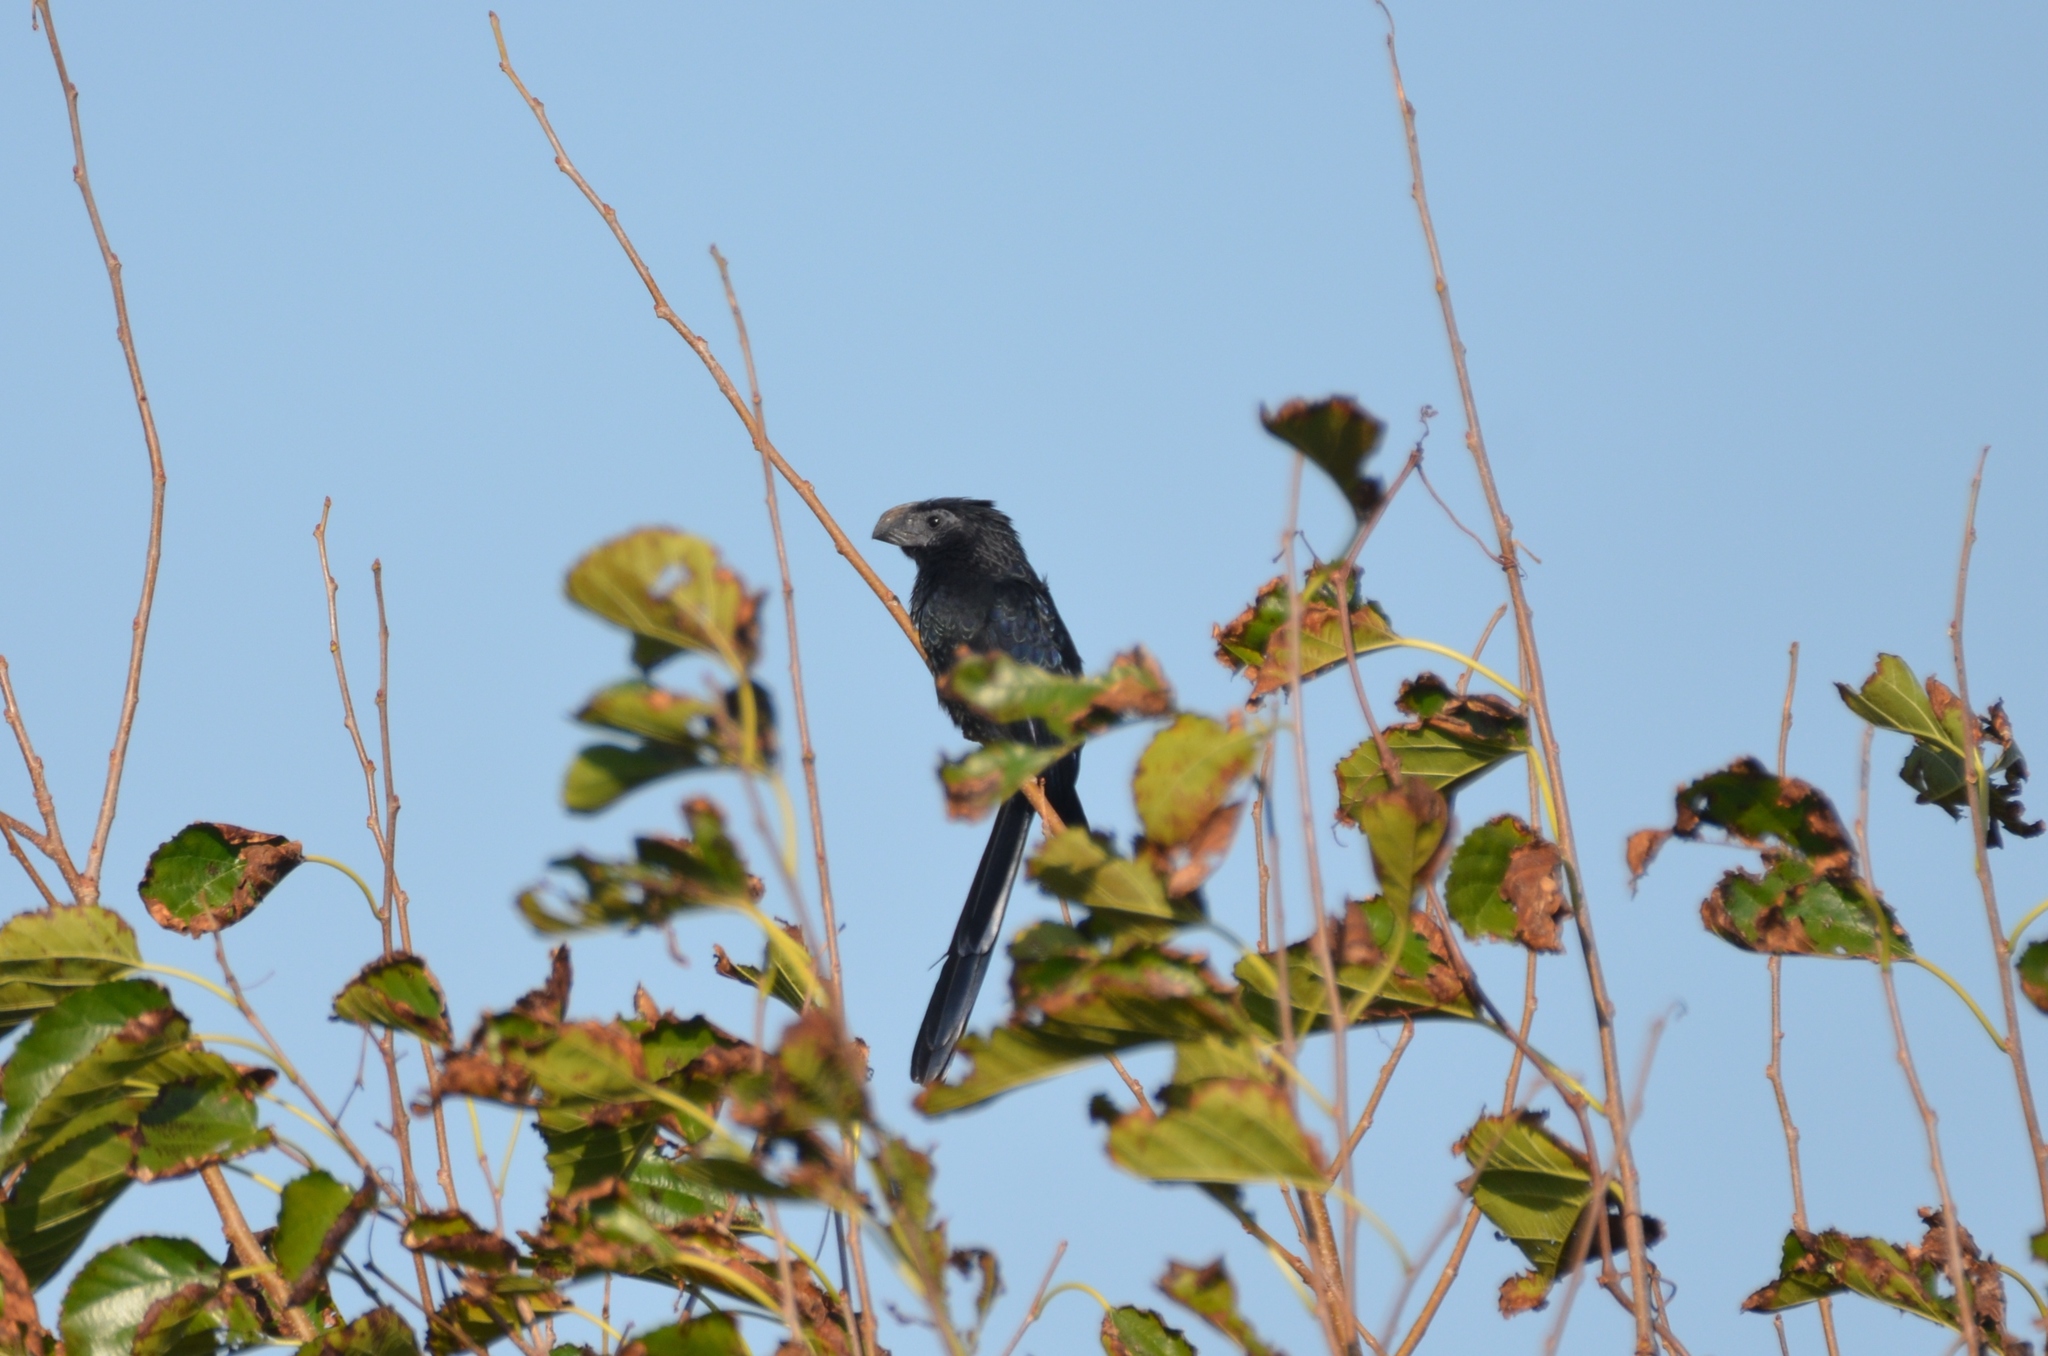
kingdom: Animalia
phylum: Chordata
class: Aves
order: Cuculiformes
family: Cuculidae
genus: Crotophaga
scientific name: Crotophaga sulcirostris
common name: Groove-billed ani
